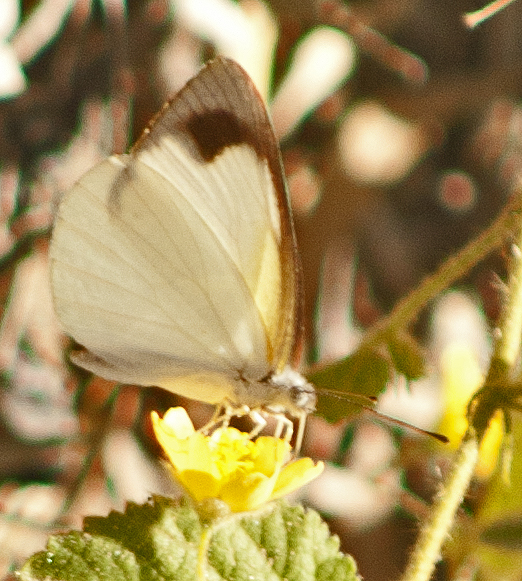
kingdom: Animalia
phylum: Arthropoda
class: Insecta
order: Lepidoptera
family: Pieridae
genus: Elodina
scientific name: Elodina padusa
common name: Narrow-winge pearl white
